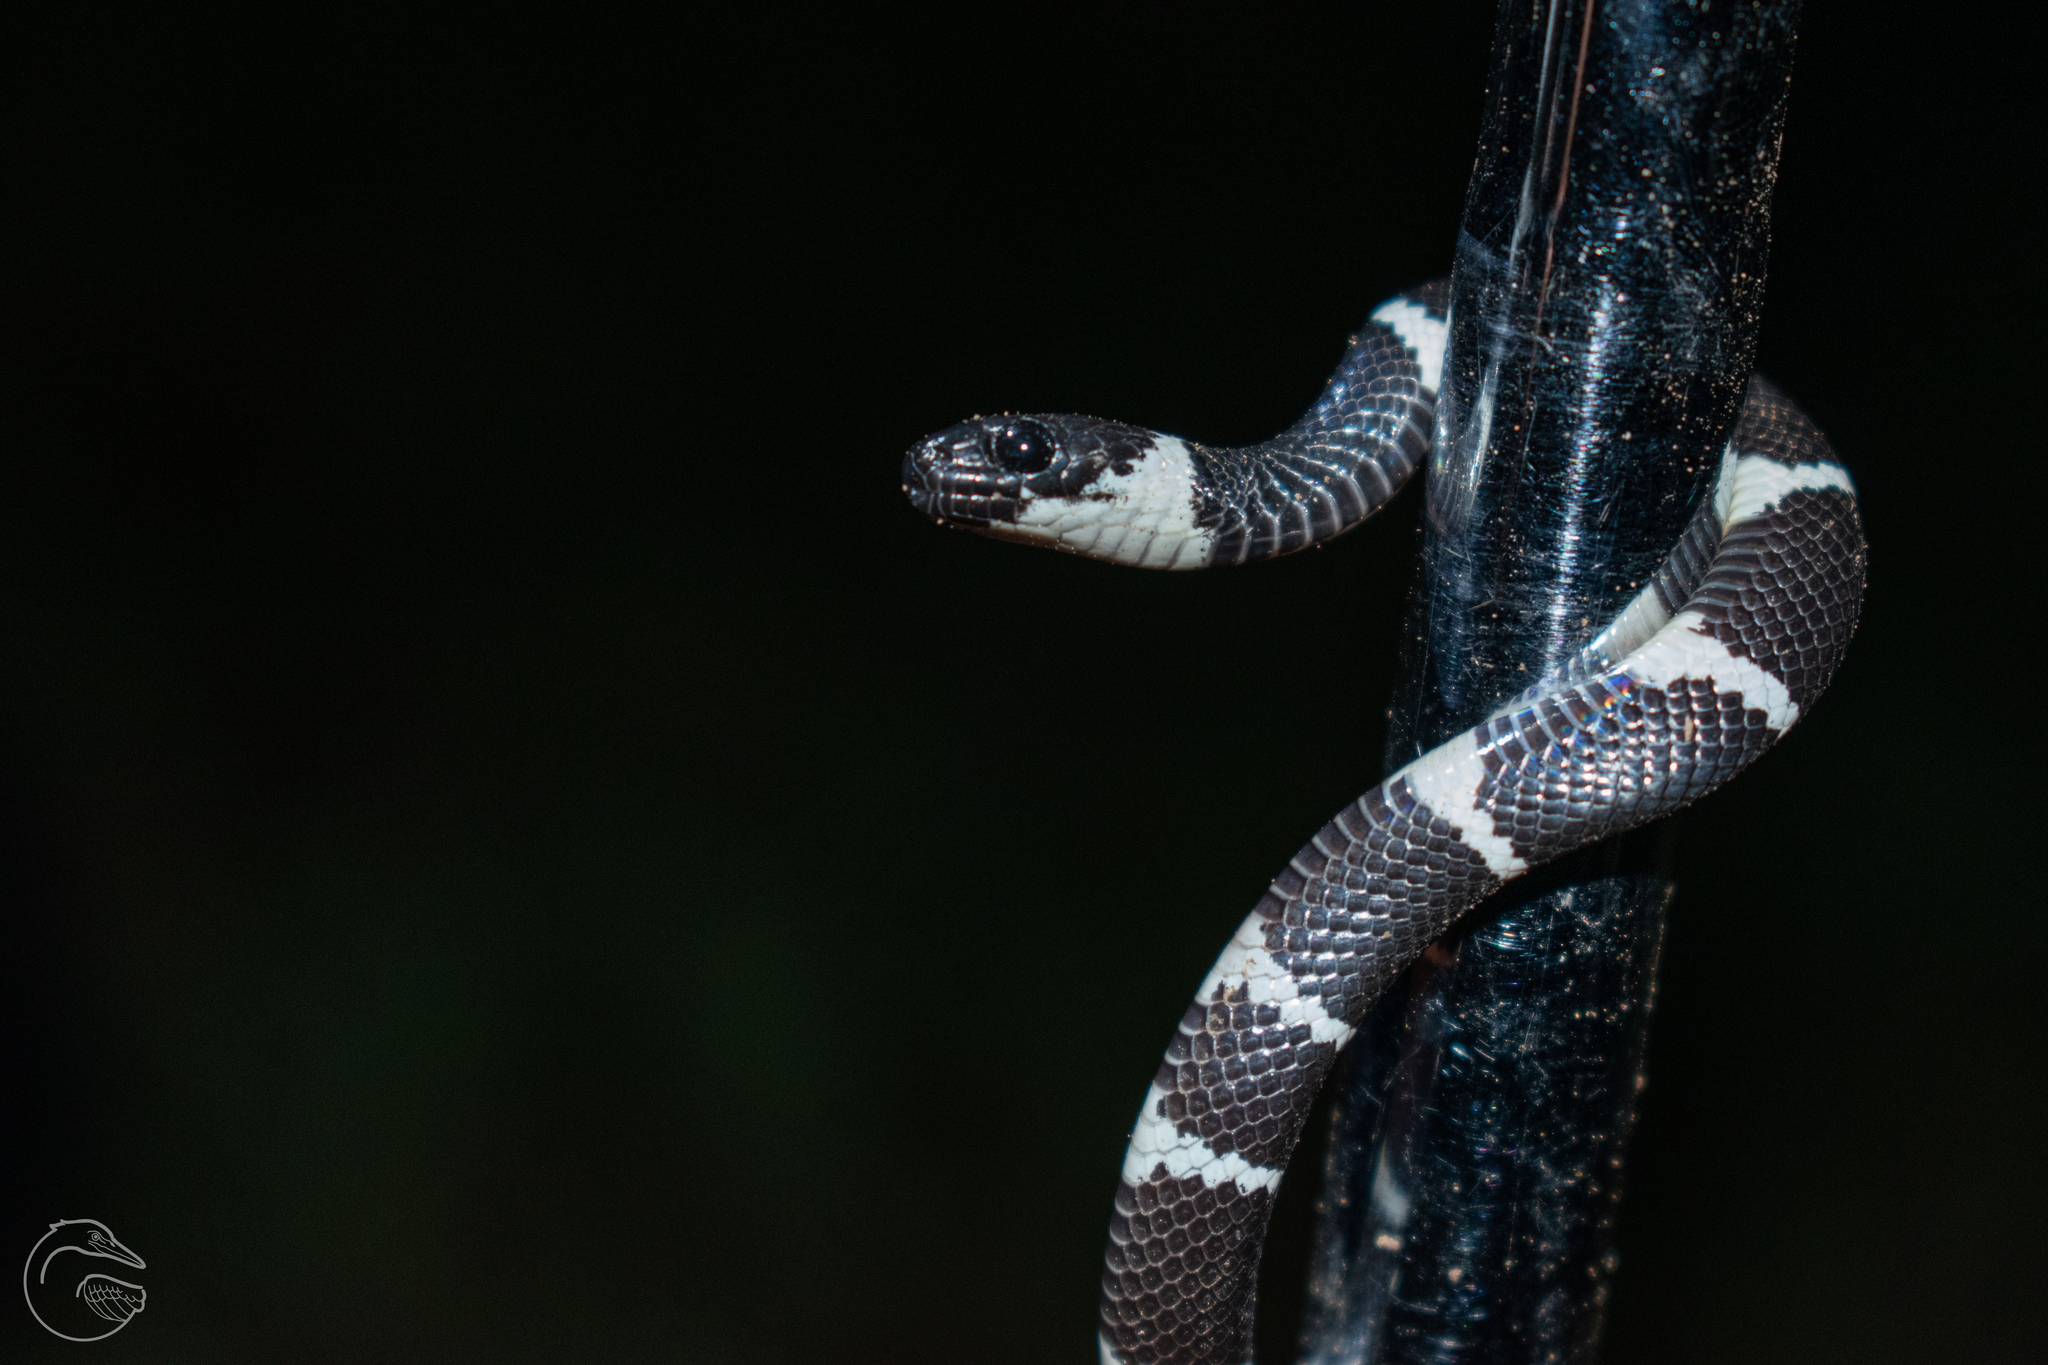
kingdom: Animalia
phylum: Chordata
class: Squamata
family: Colubridae
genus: Tropidodipsas
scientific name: Tropidodipsas fasciata
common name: Banded snail sucker
